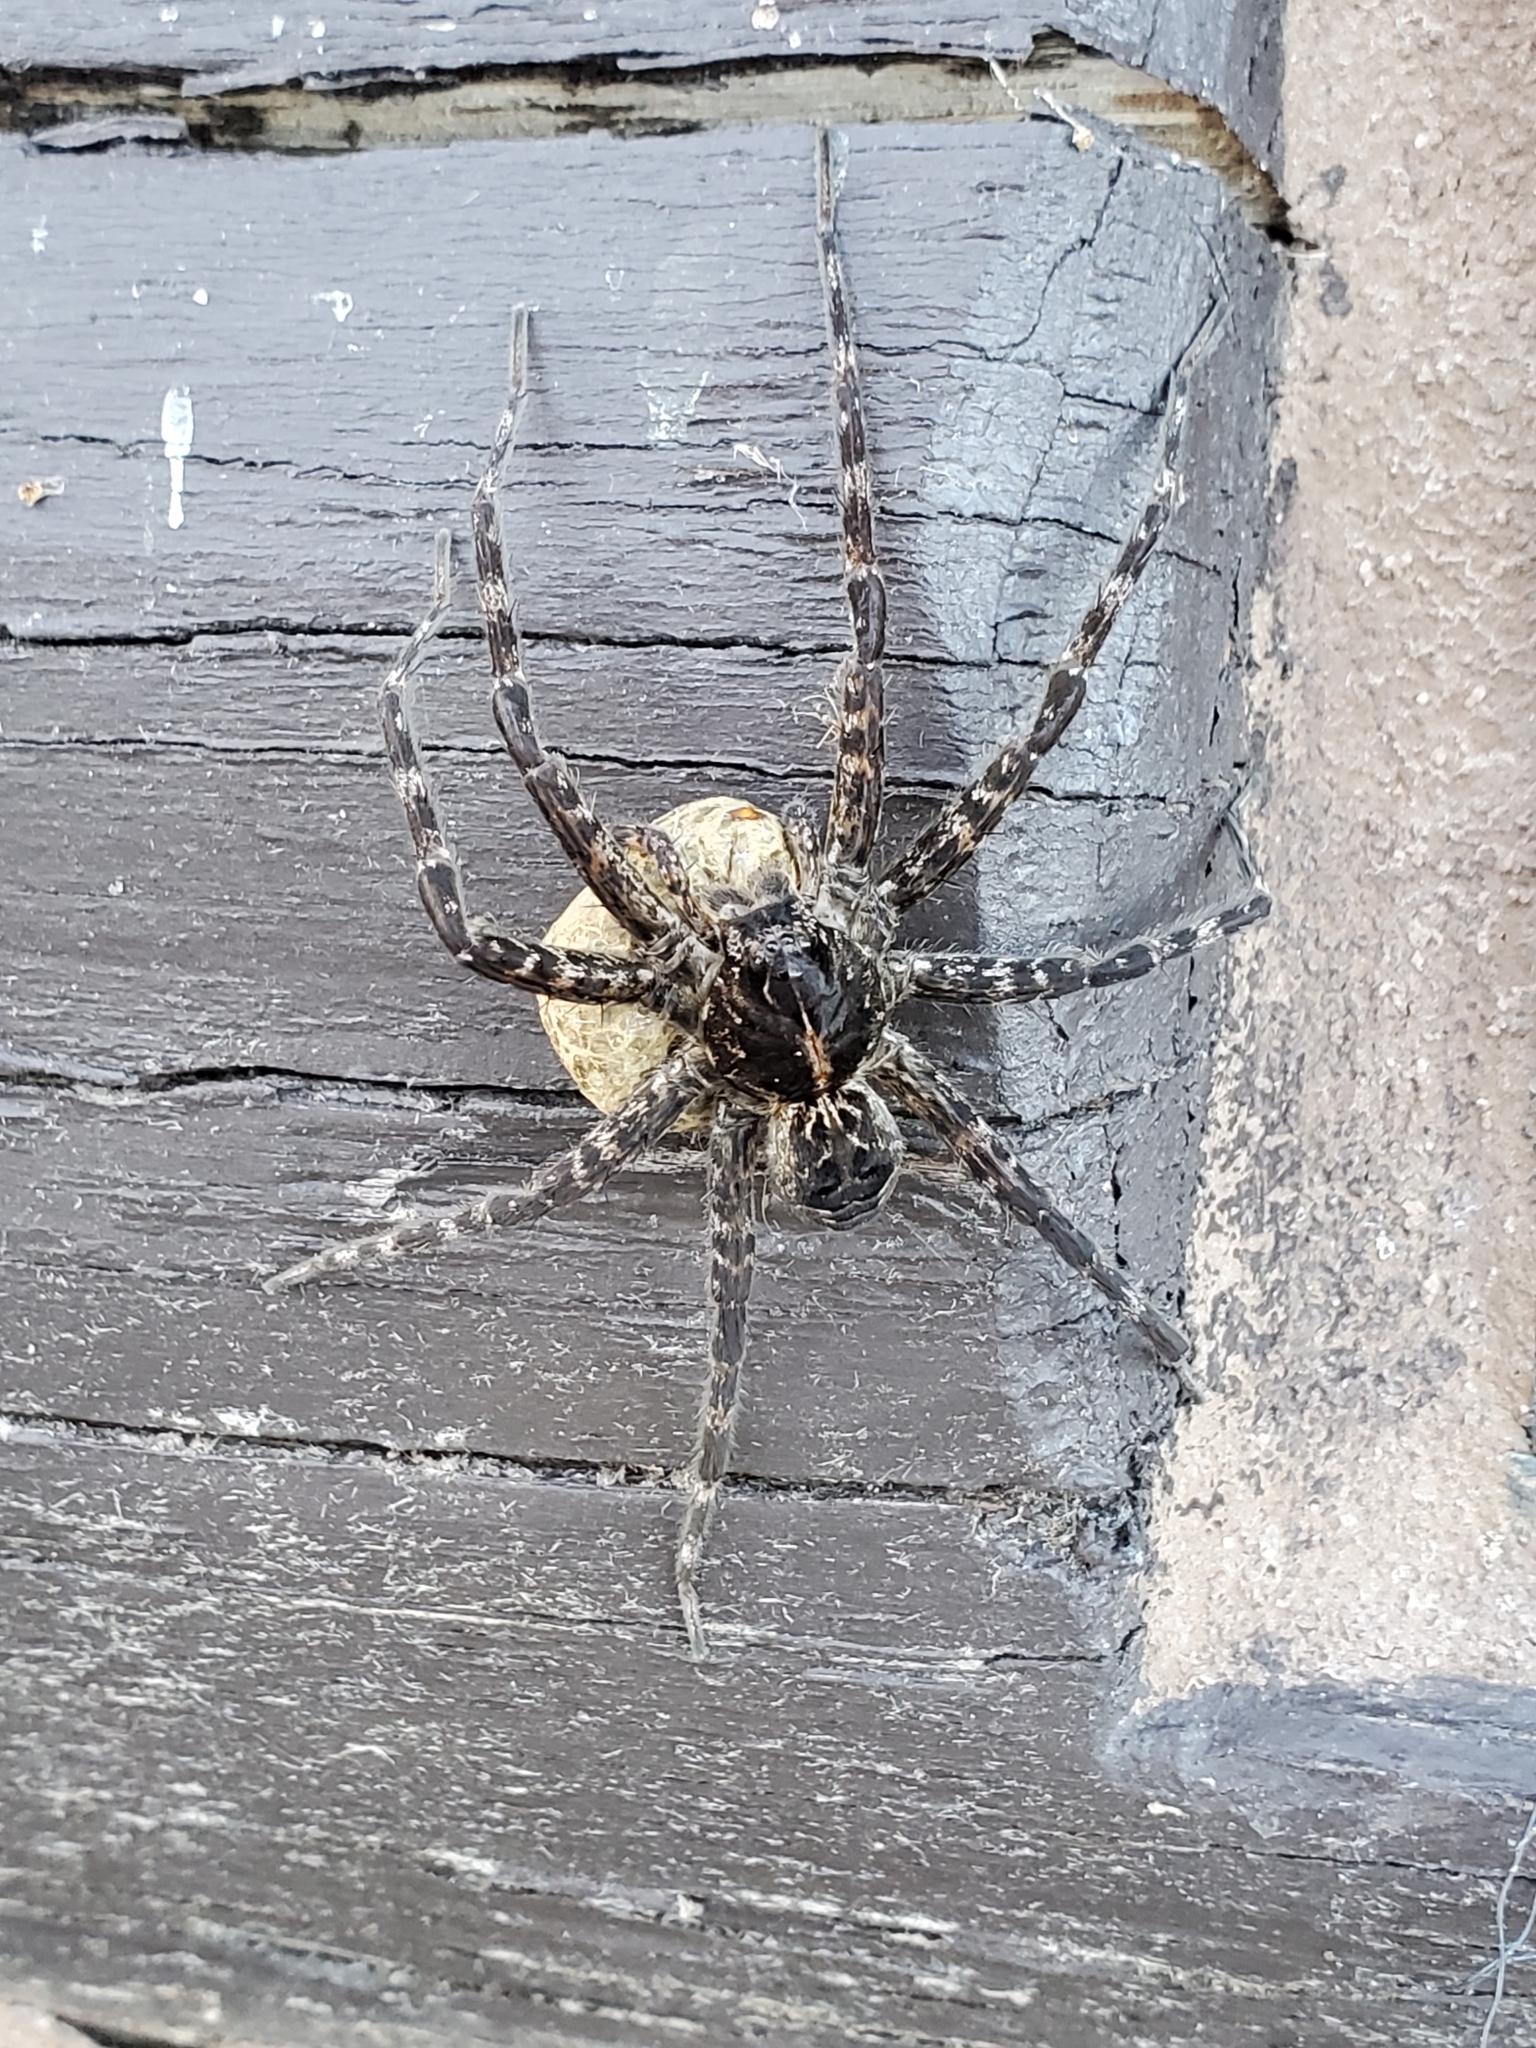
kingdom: Animalia
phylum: Arthropoda
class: Arachnida
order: Araneae
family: Pisauridae
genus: Dolomedes
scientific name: Dolomedes scriptus
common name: Striped fishing spider
